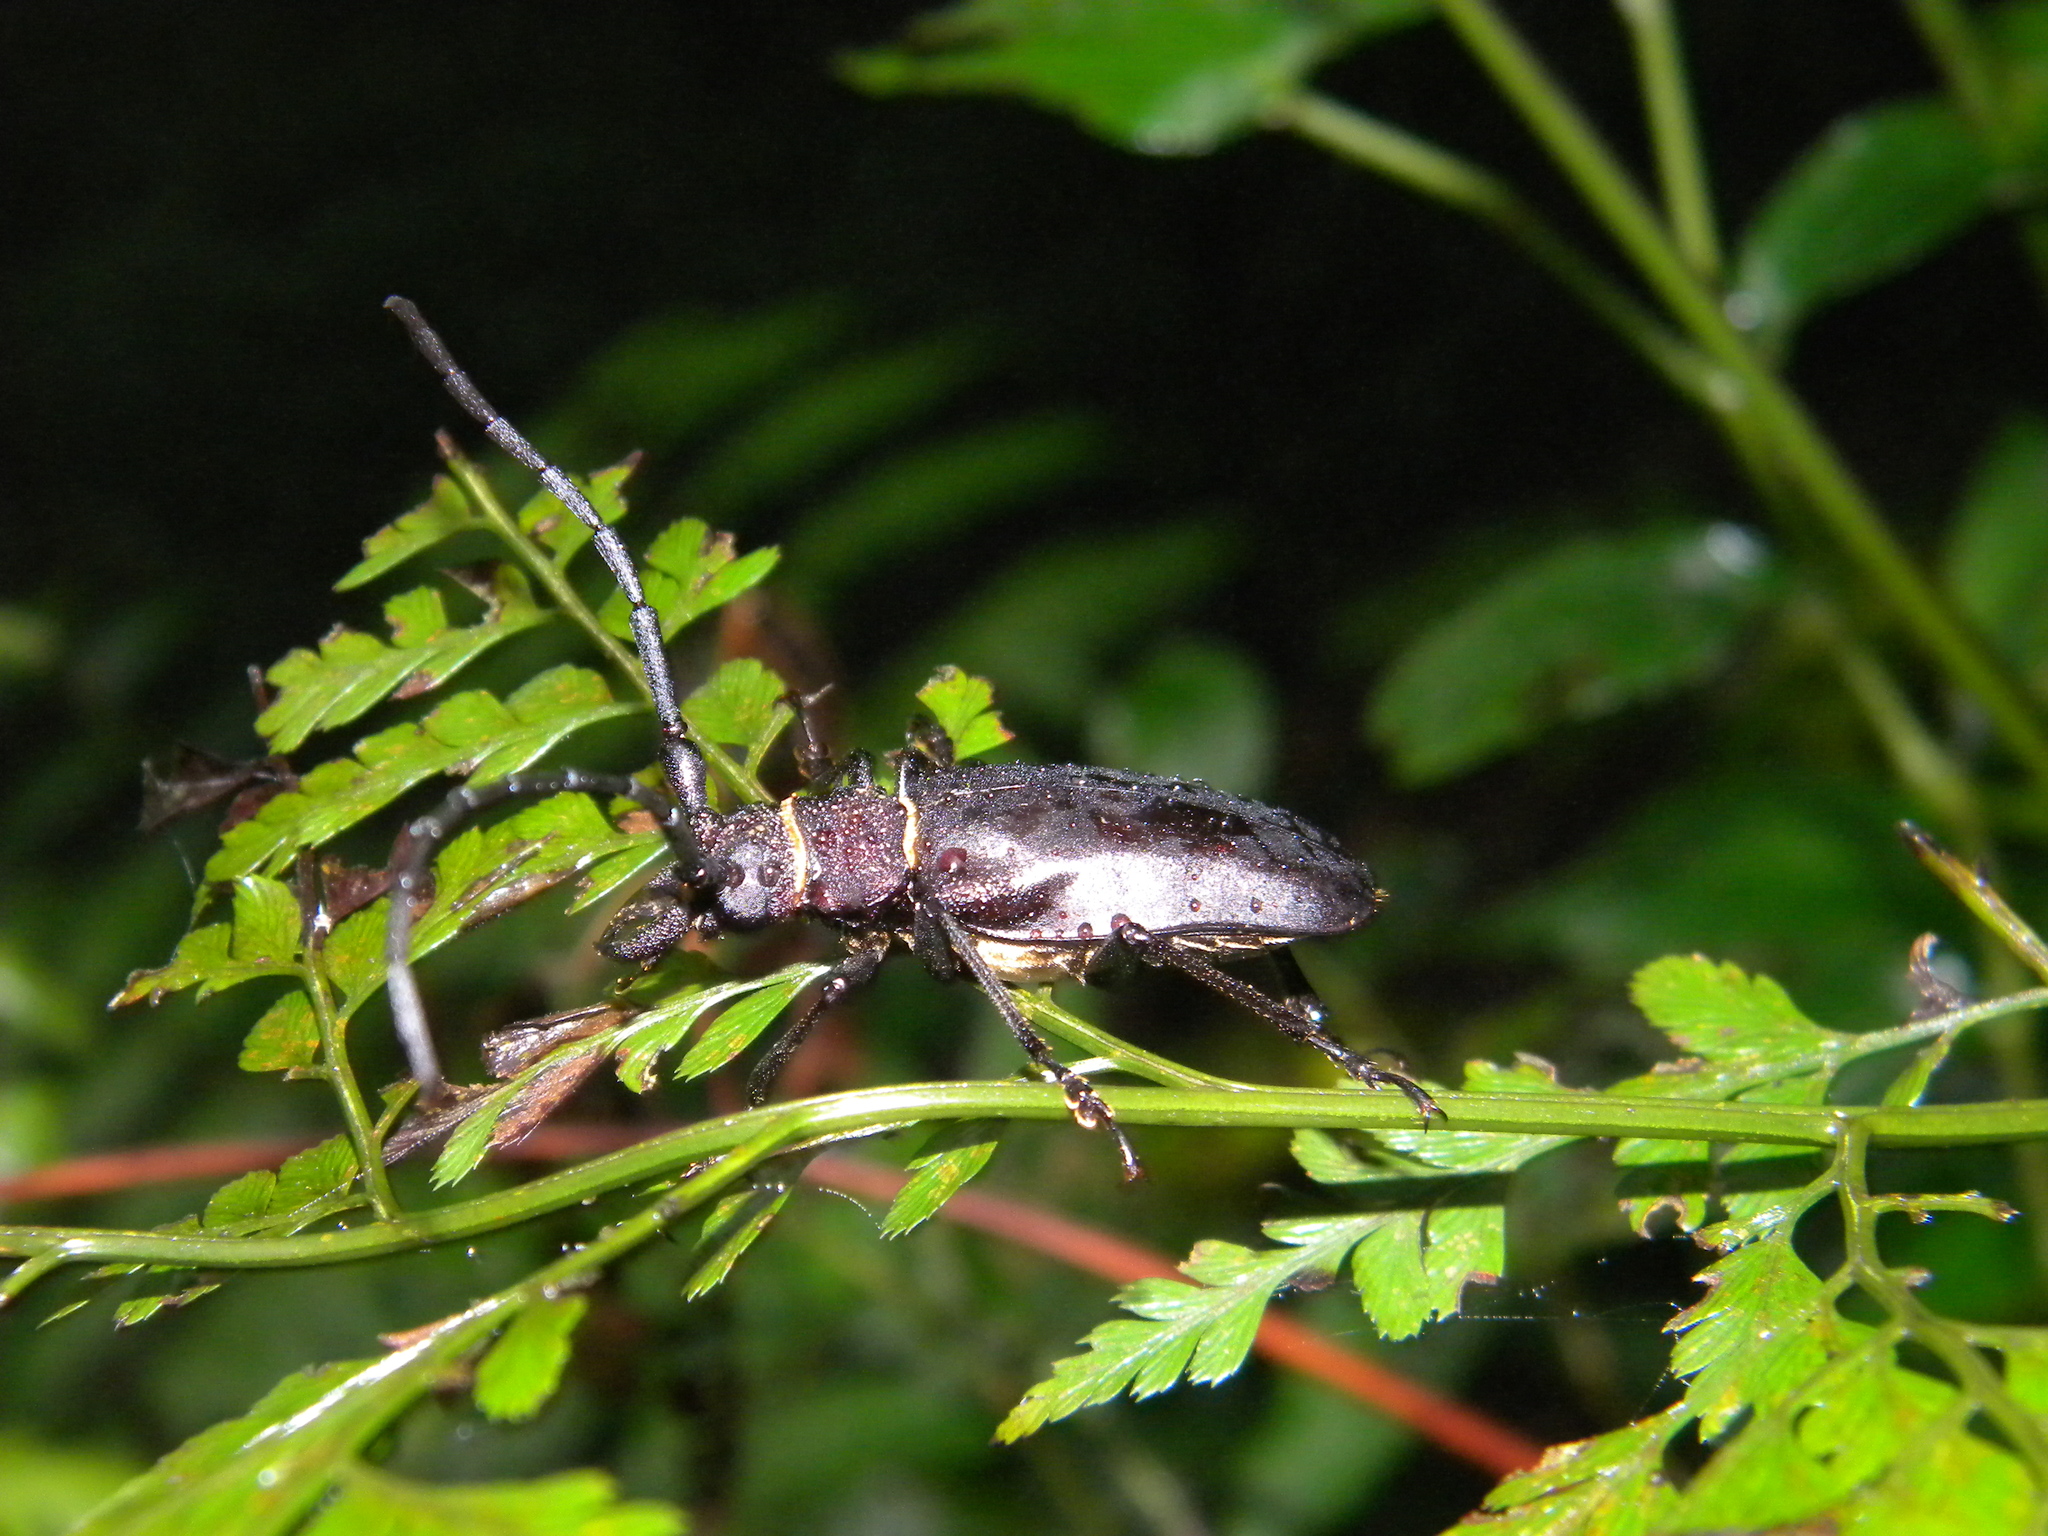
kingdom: Animalia
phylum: Arthropoda
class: Insecta
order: Coleoptera
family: Cerambycidae
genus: Priotyrannus
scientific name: Priotyrannus mordax
